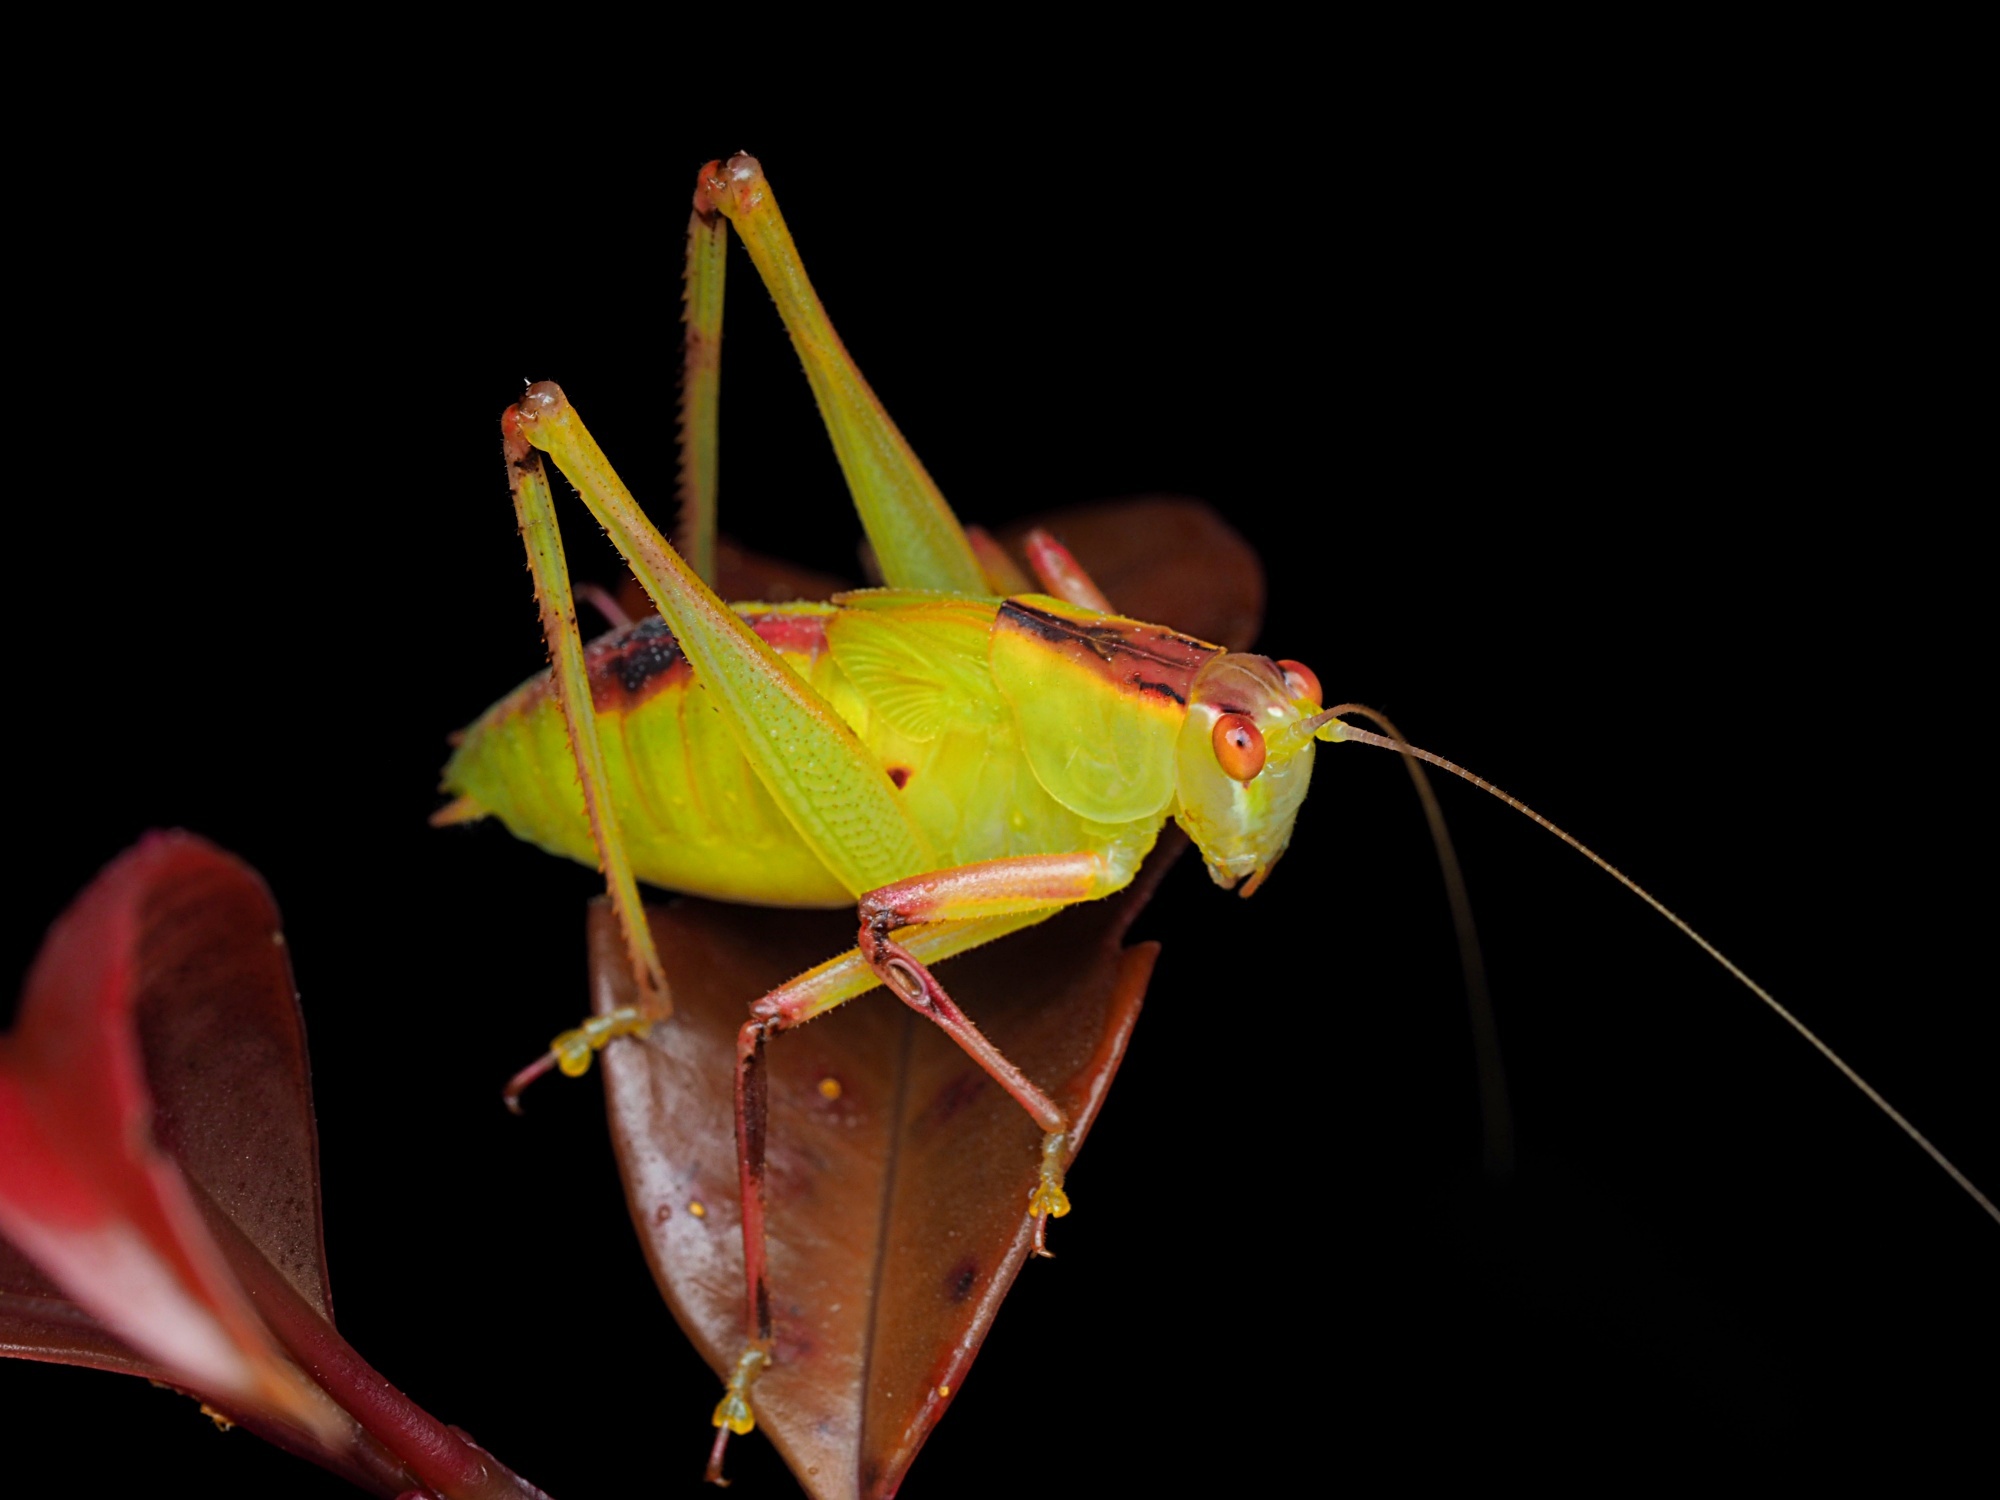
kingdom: Animalia
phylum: Arthropoda
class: Insecta
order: Orthoptera
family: Tettigoniidae
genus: Caedicia
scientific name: Caedicia simplex
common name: Common garden katydid
